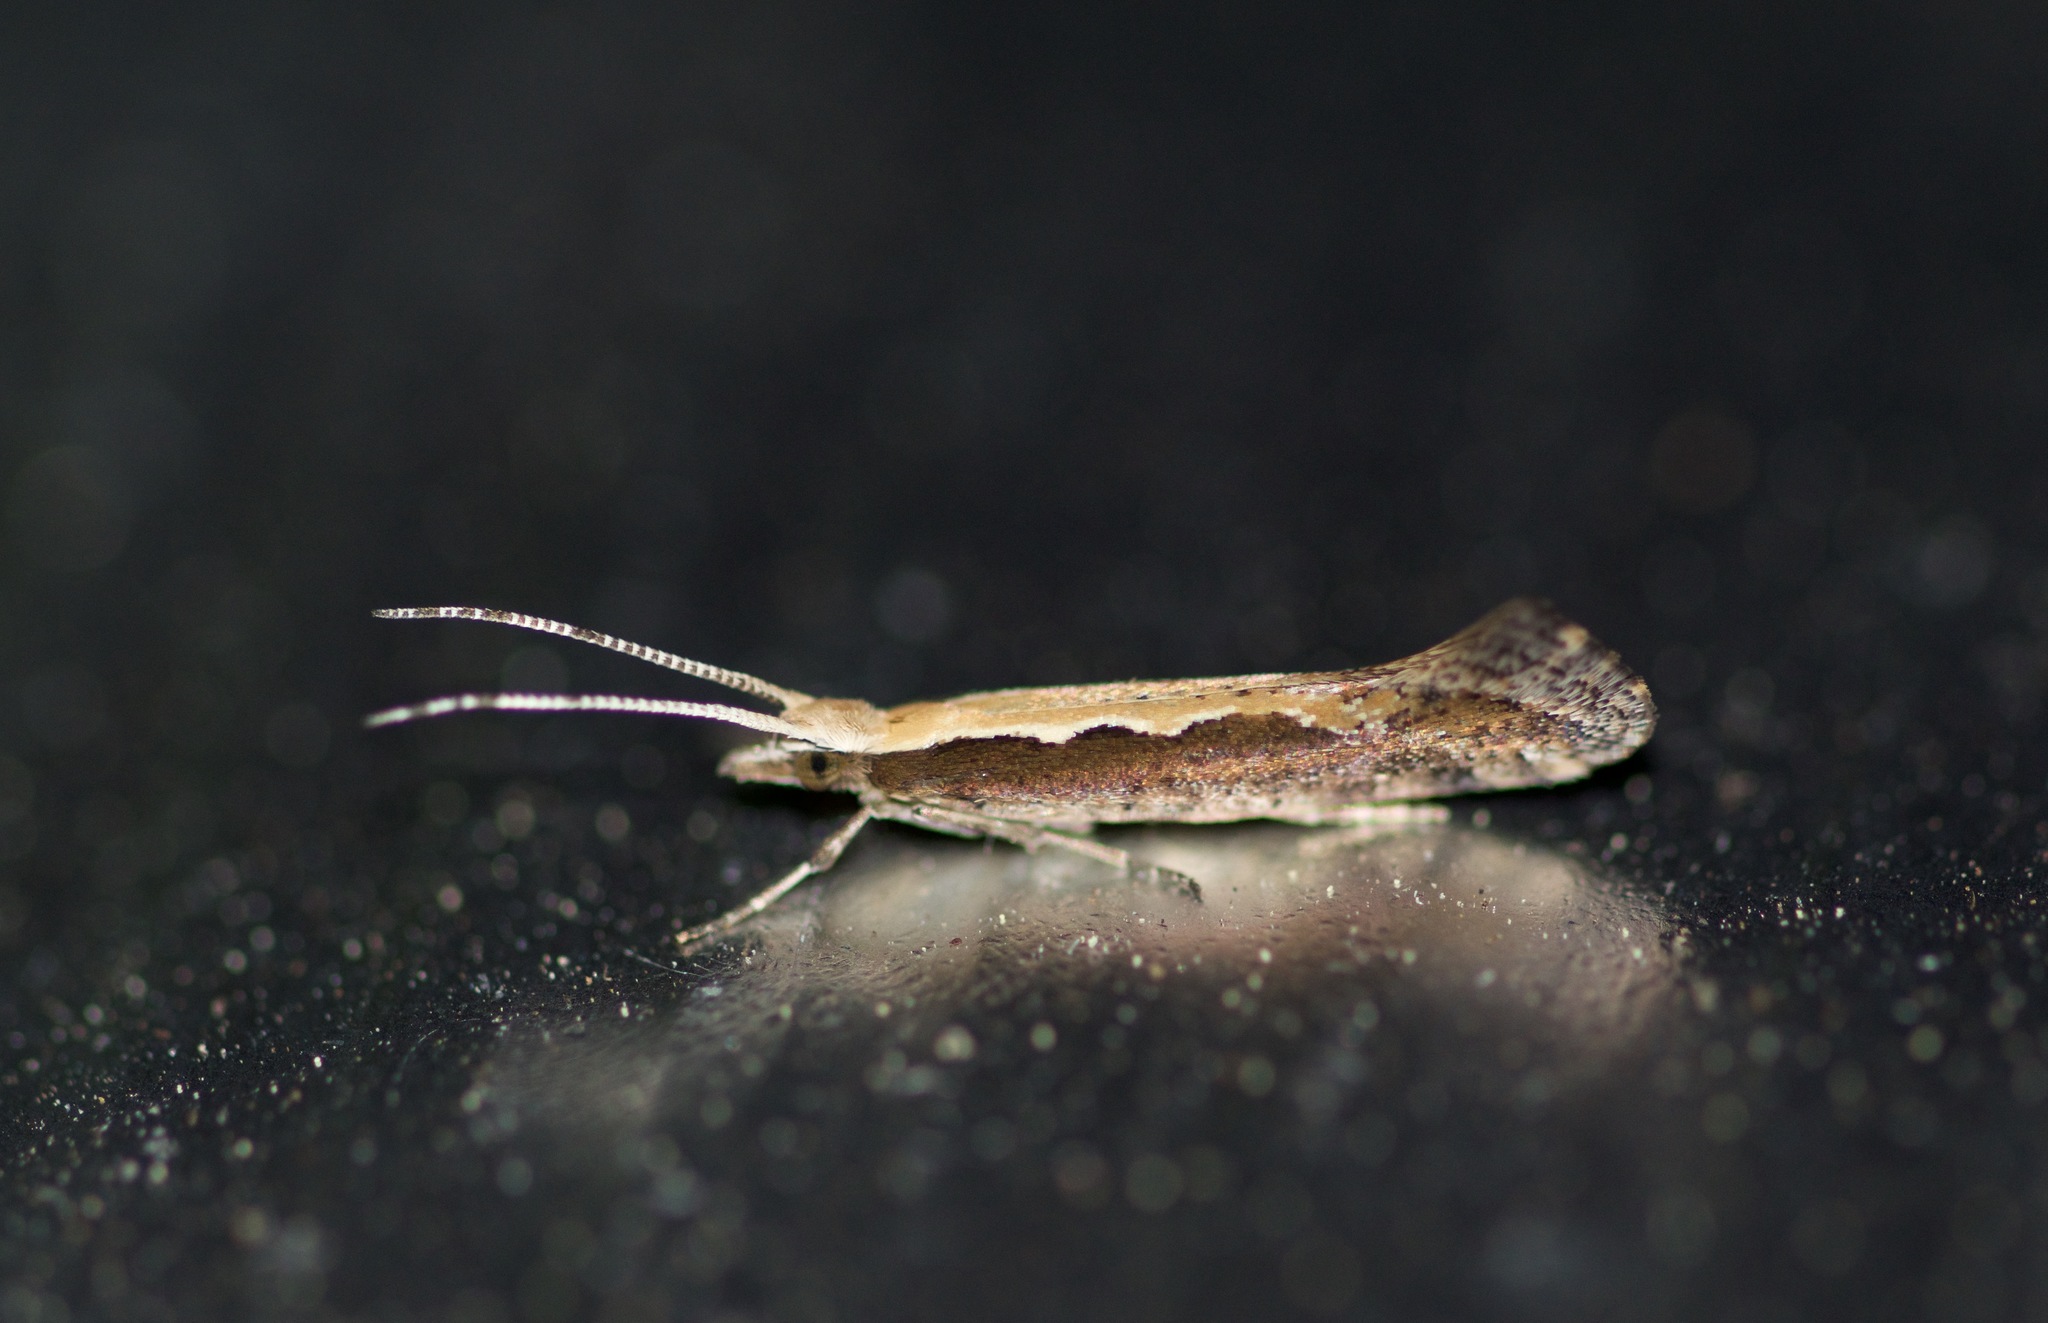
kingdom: Animalia
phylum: Arthropoda
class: Insecta
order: Lepidoptera
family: Plutellidae
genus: Plutella
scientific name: Plutella xylostella
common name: Diamond-back moth
